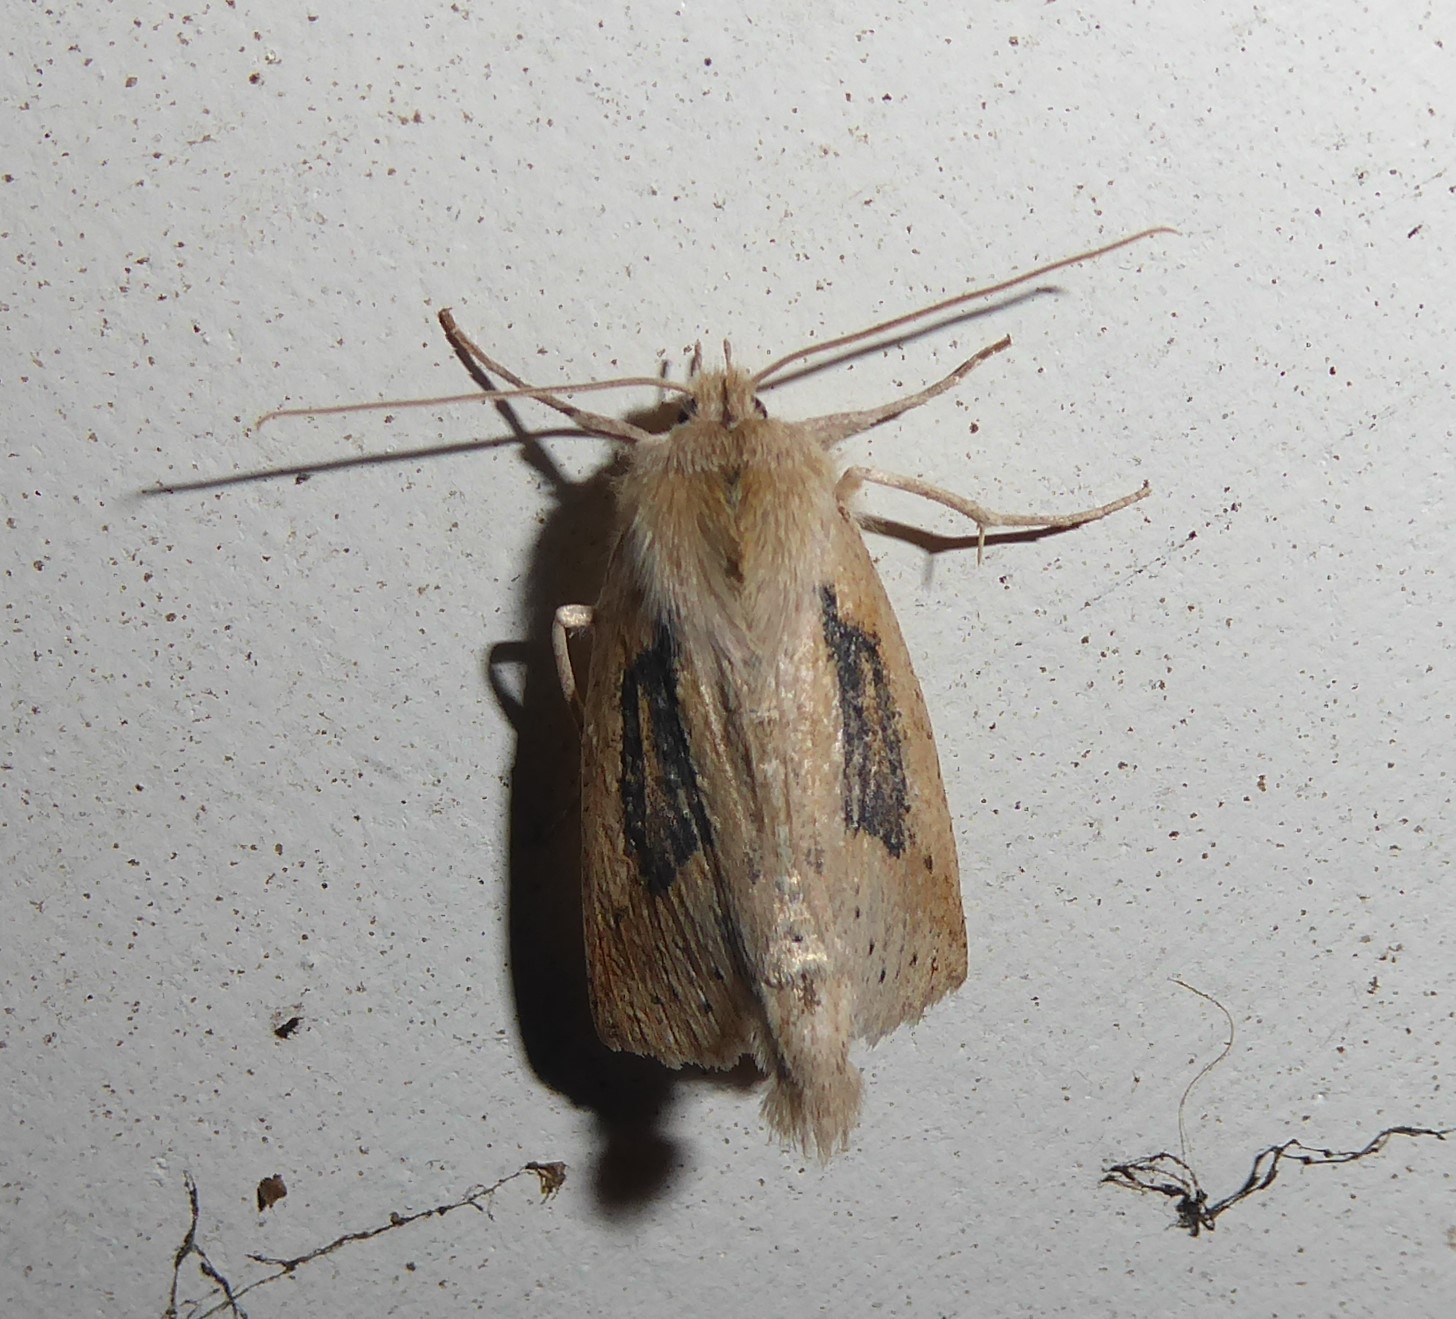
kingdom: Animalia
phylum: Arthropoda
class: Insecta
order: Lepidoptera
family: Geometridae
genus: Declana
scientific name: Declana leptomera
